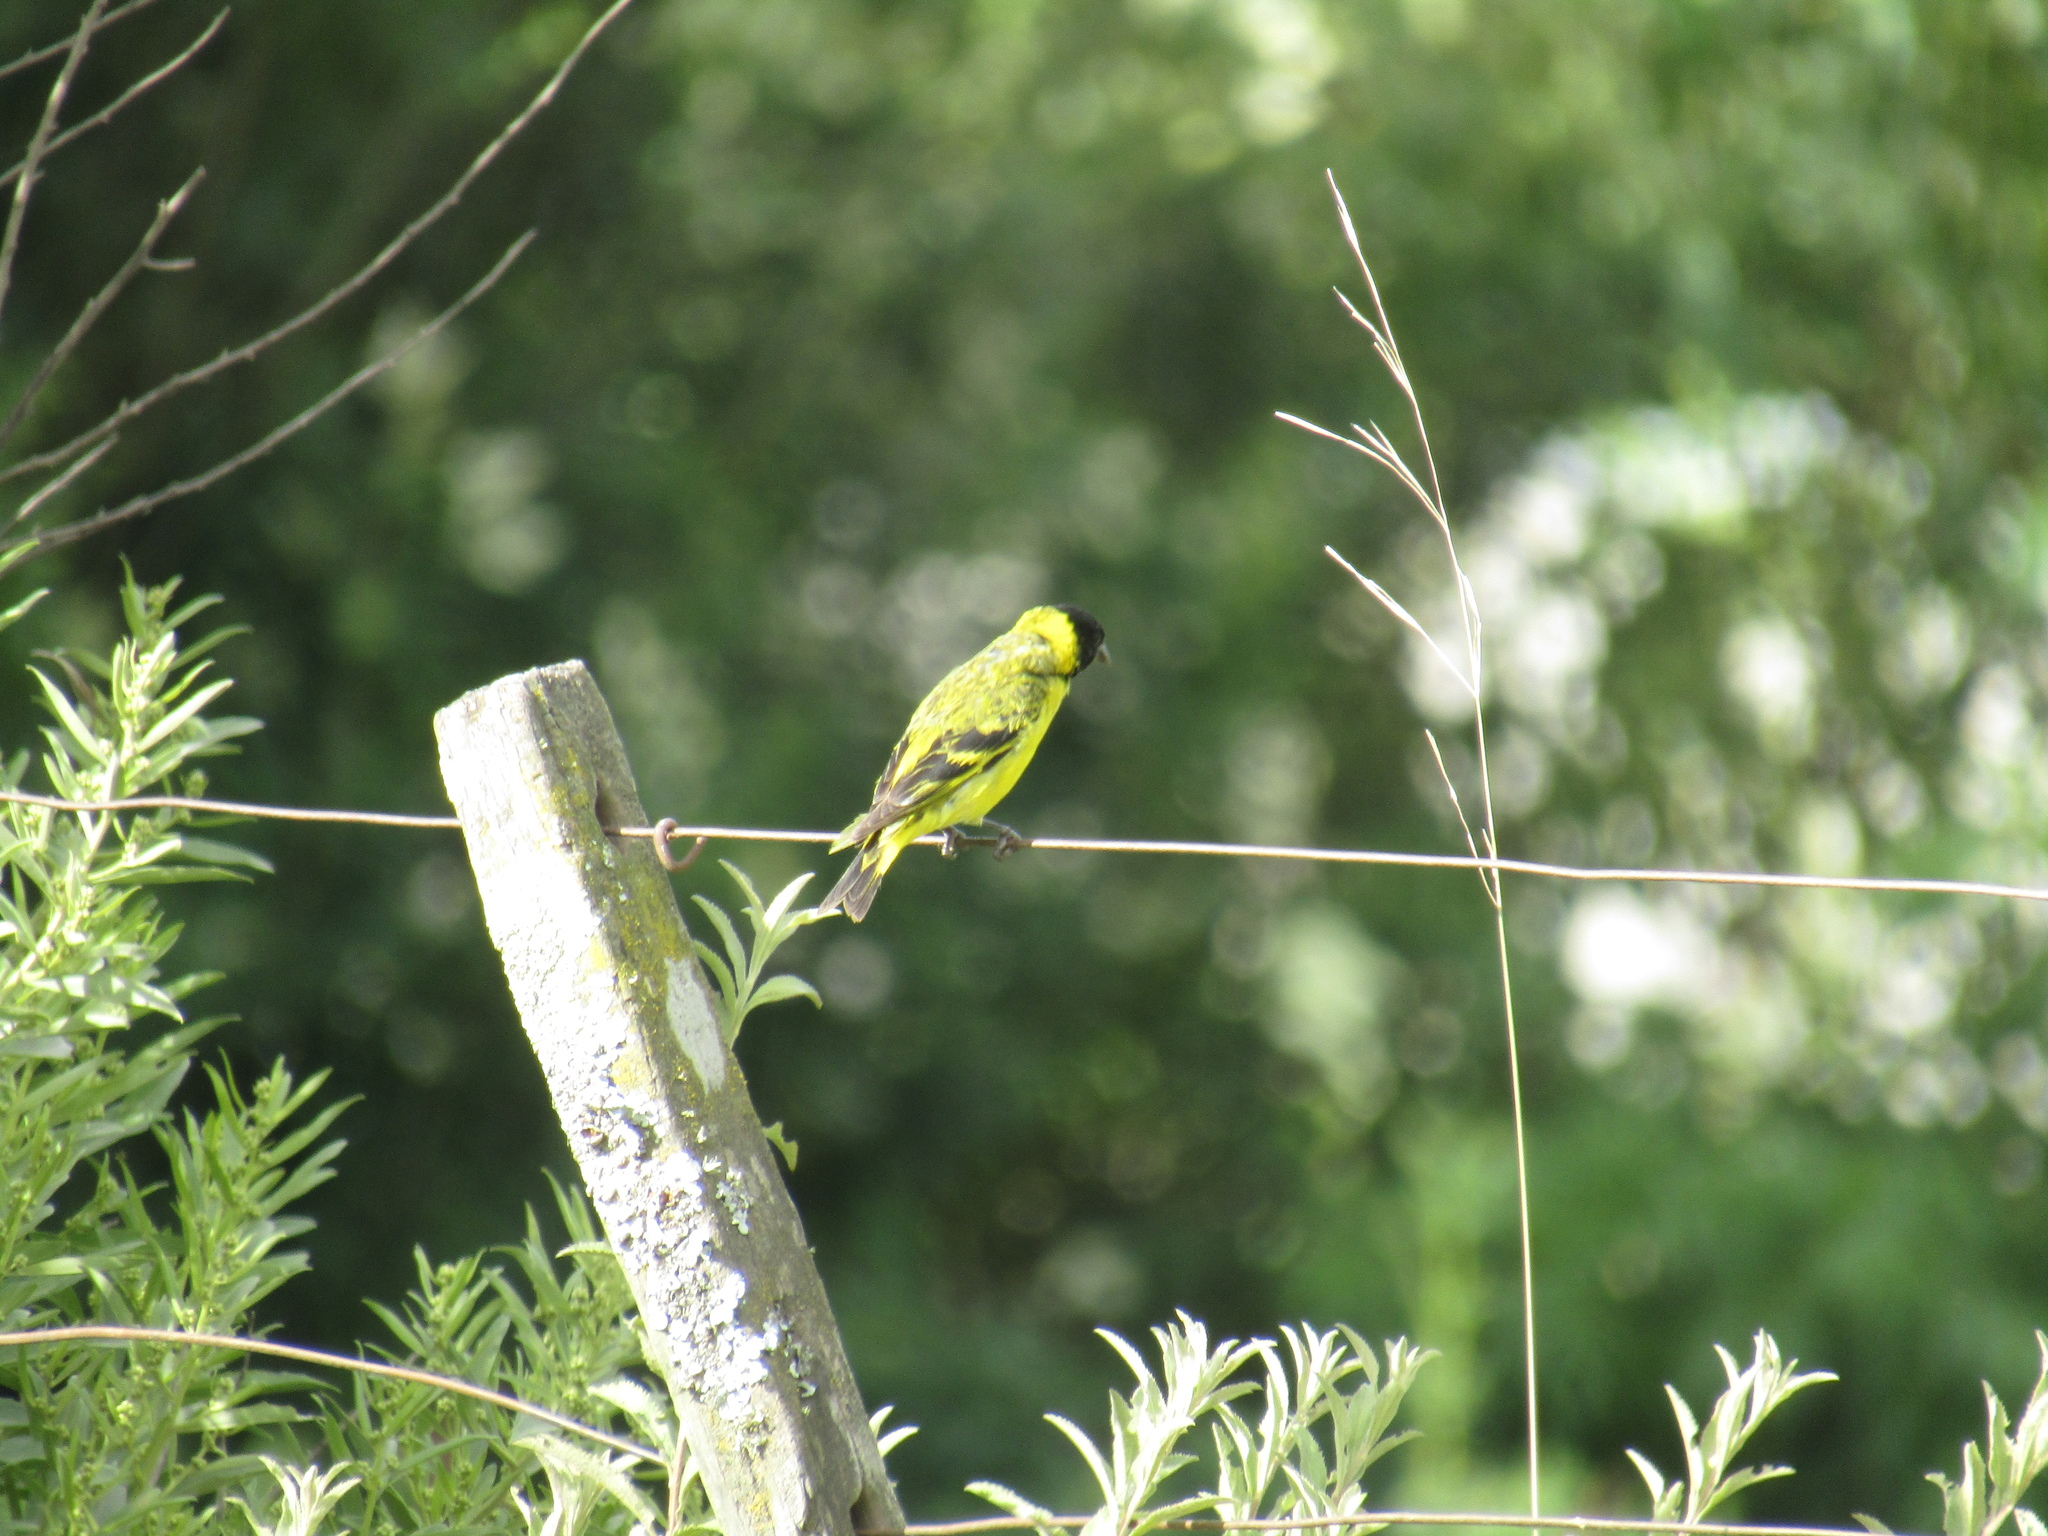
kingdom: Animalia
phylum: Chordata
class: Aves
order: Passeriformes
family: Fringillidae
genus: Spinus
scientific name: Spinus magellanicus
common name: Hooded siskin
